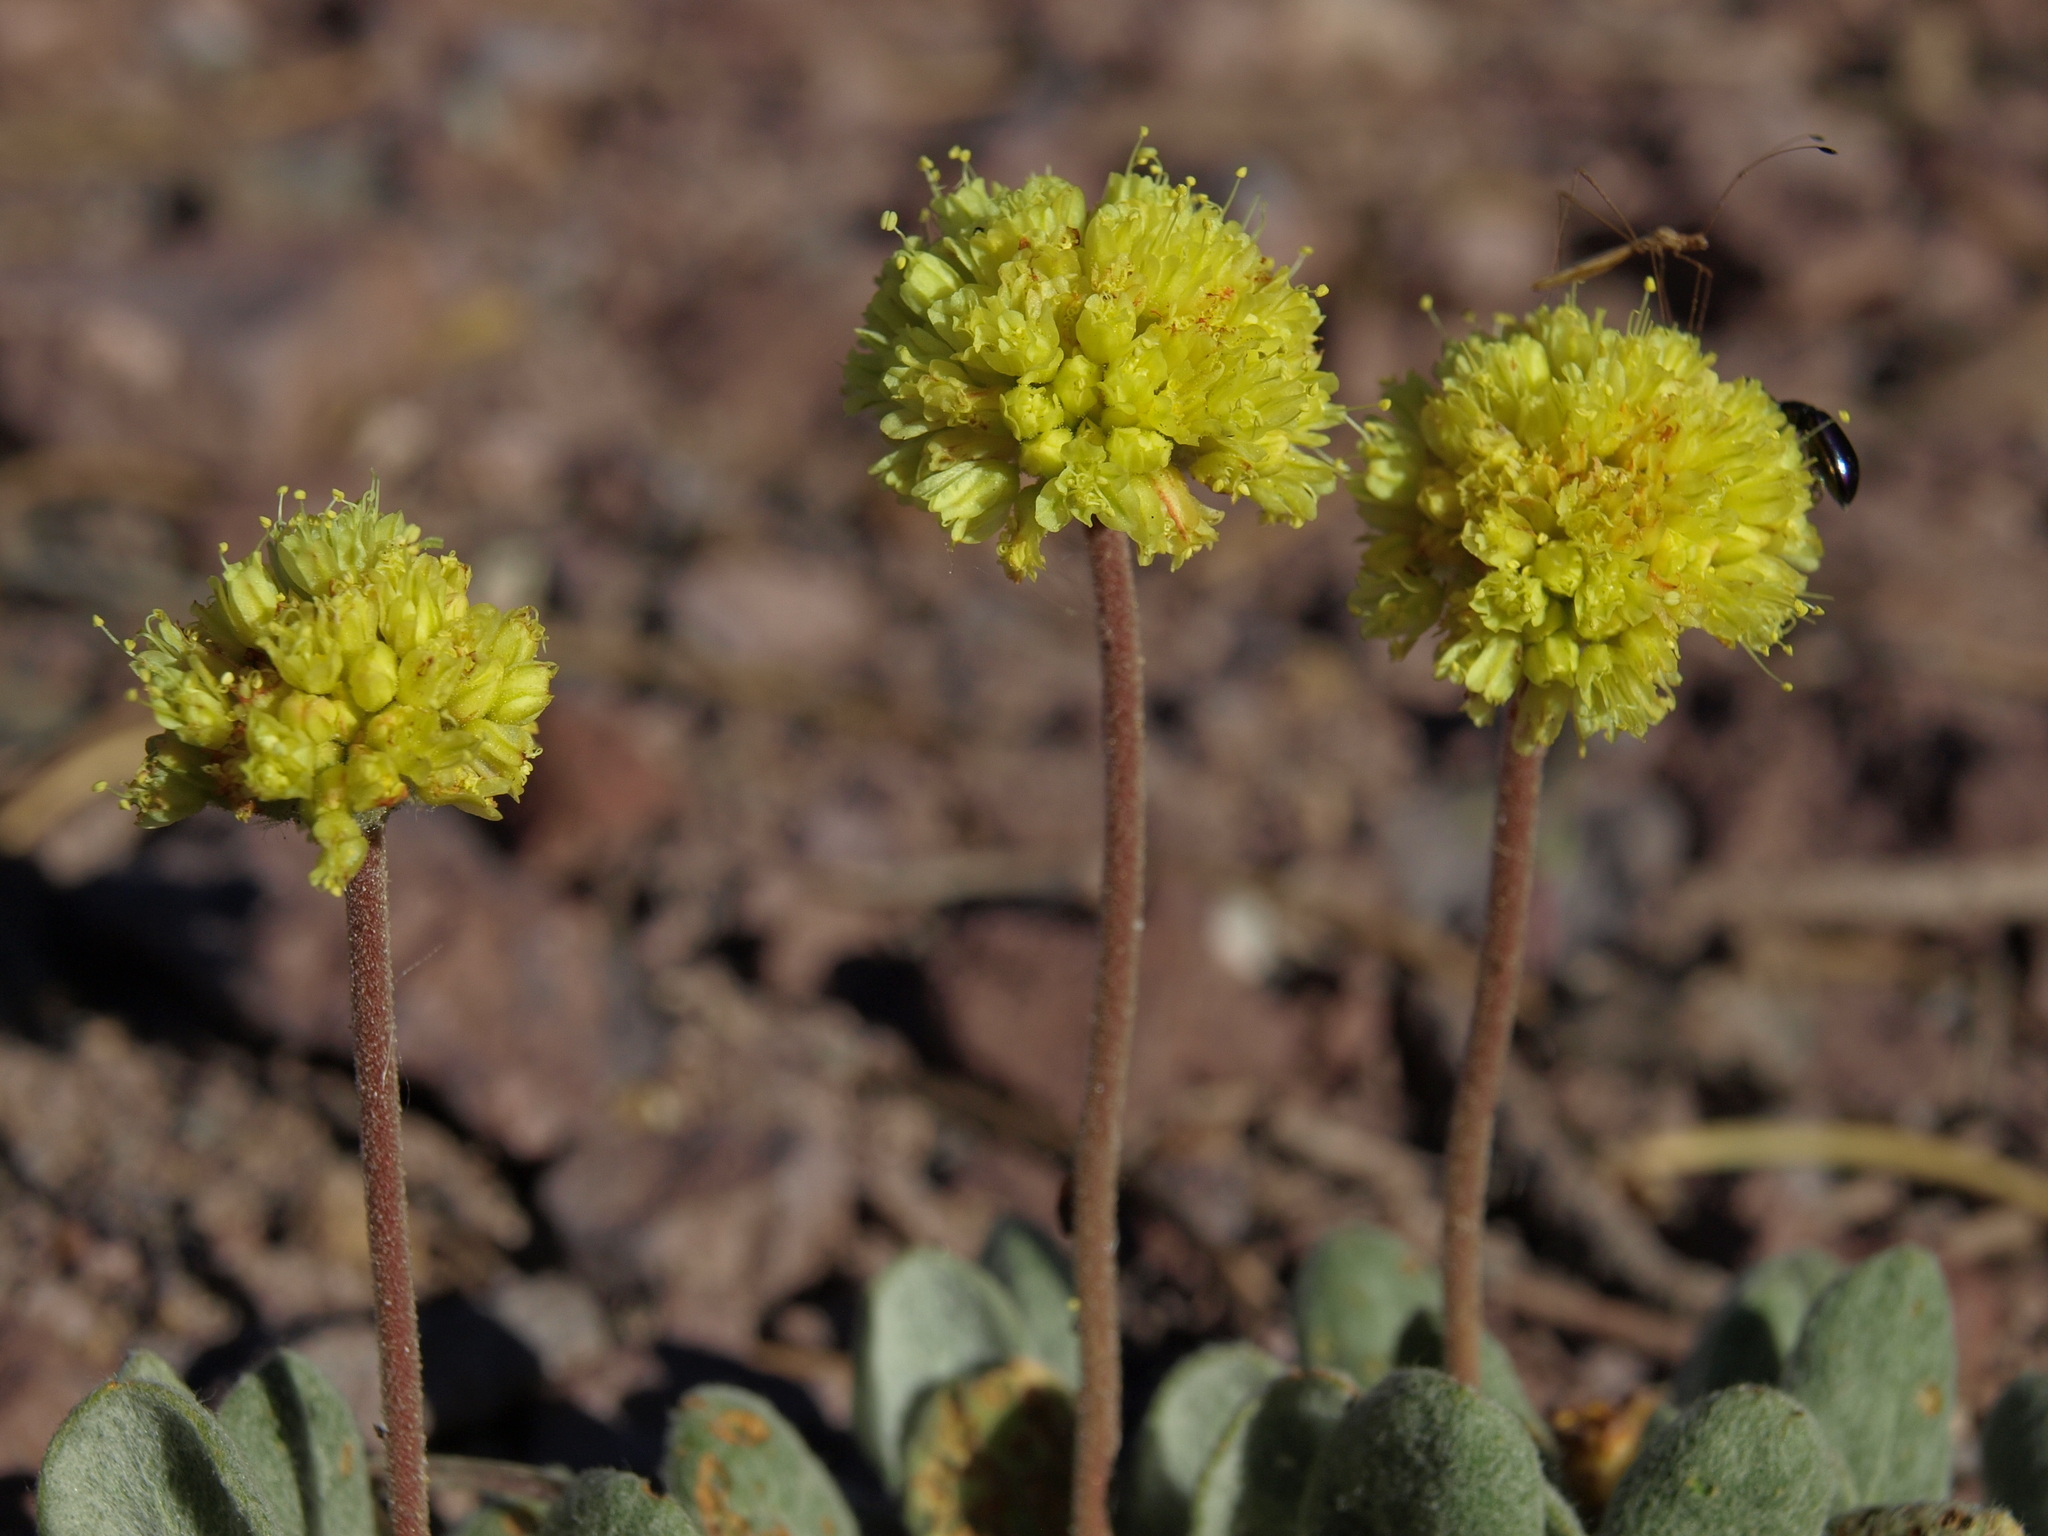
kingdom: Plantae
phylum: Tracheophyta
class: Magnoliopsida
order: Caryophyllales
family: Polygonaceae
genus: Eriogonum
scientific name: Eriogonum rosense
